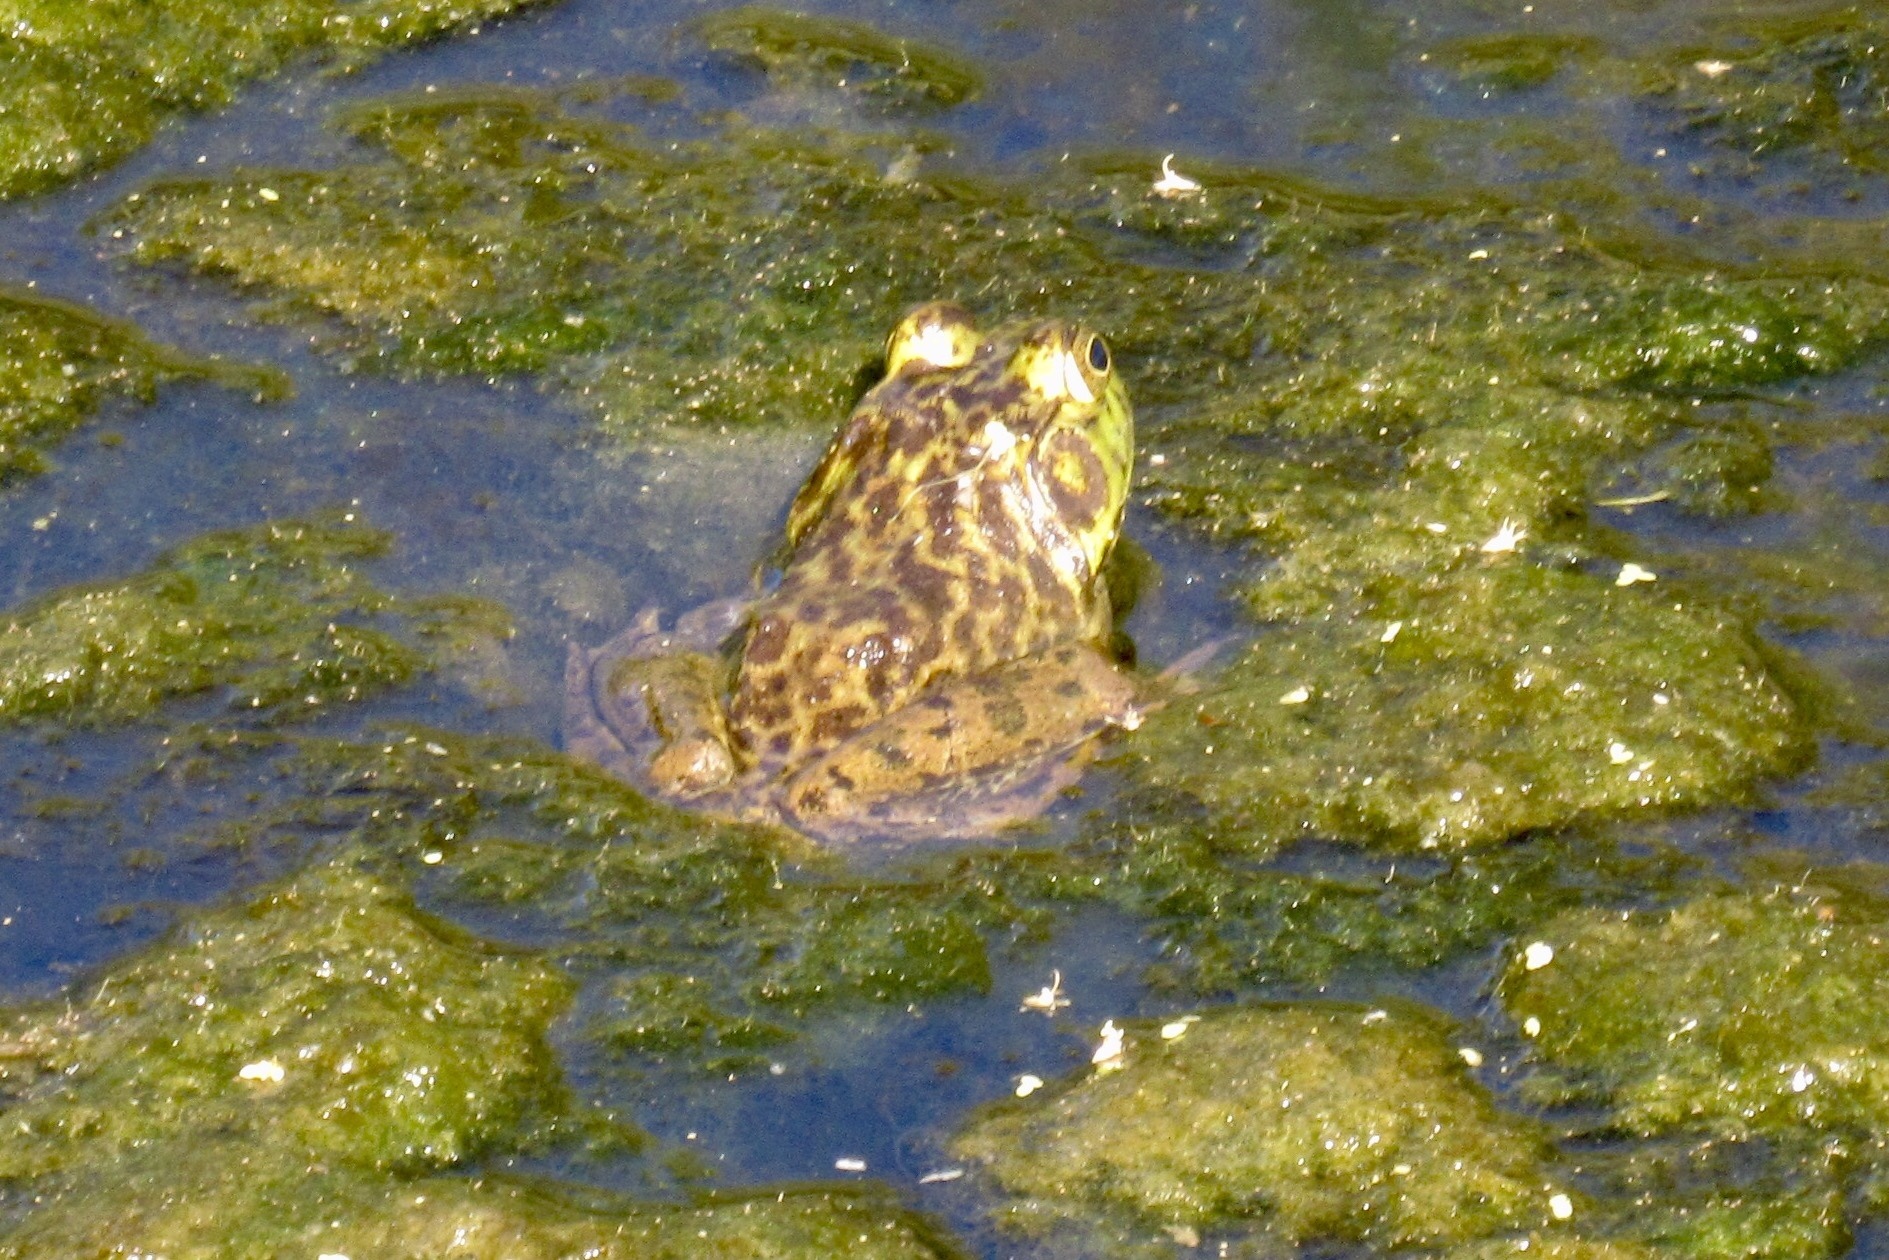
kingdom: Animalia
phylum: Chordata
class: Amphibia
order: Anura
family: Ranidae
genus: Lithobates
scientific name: Lithobates catesbeianus
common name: American bullfrog
